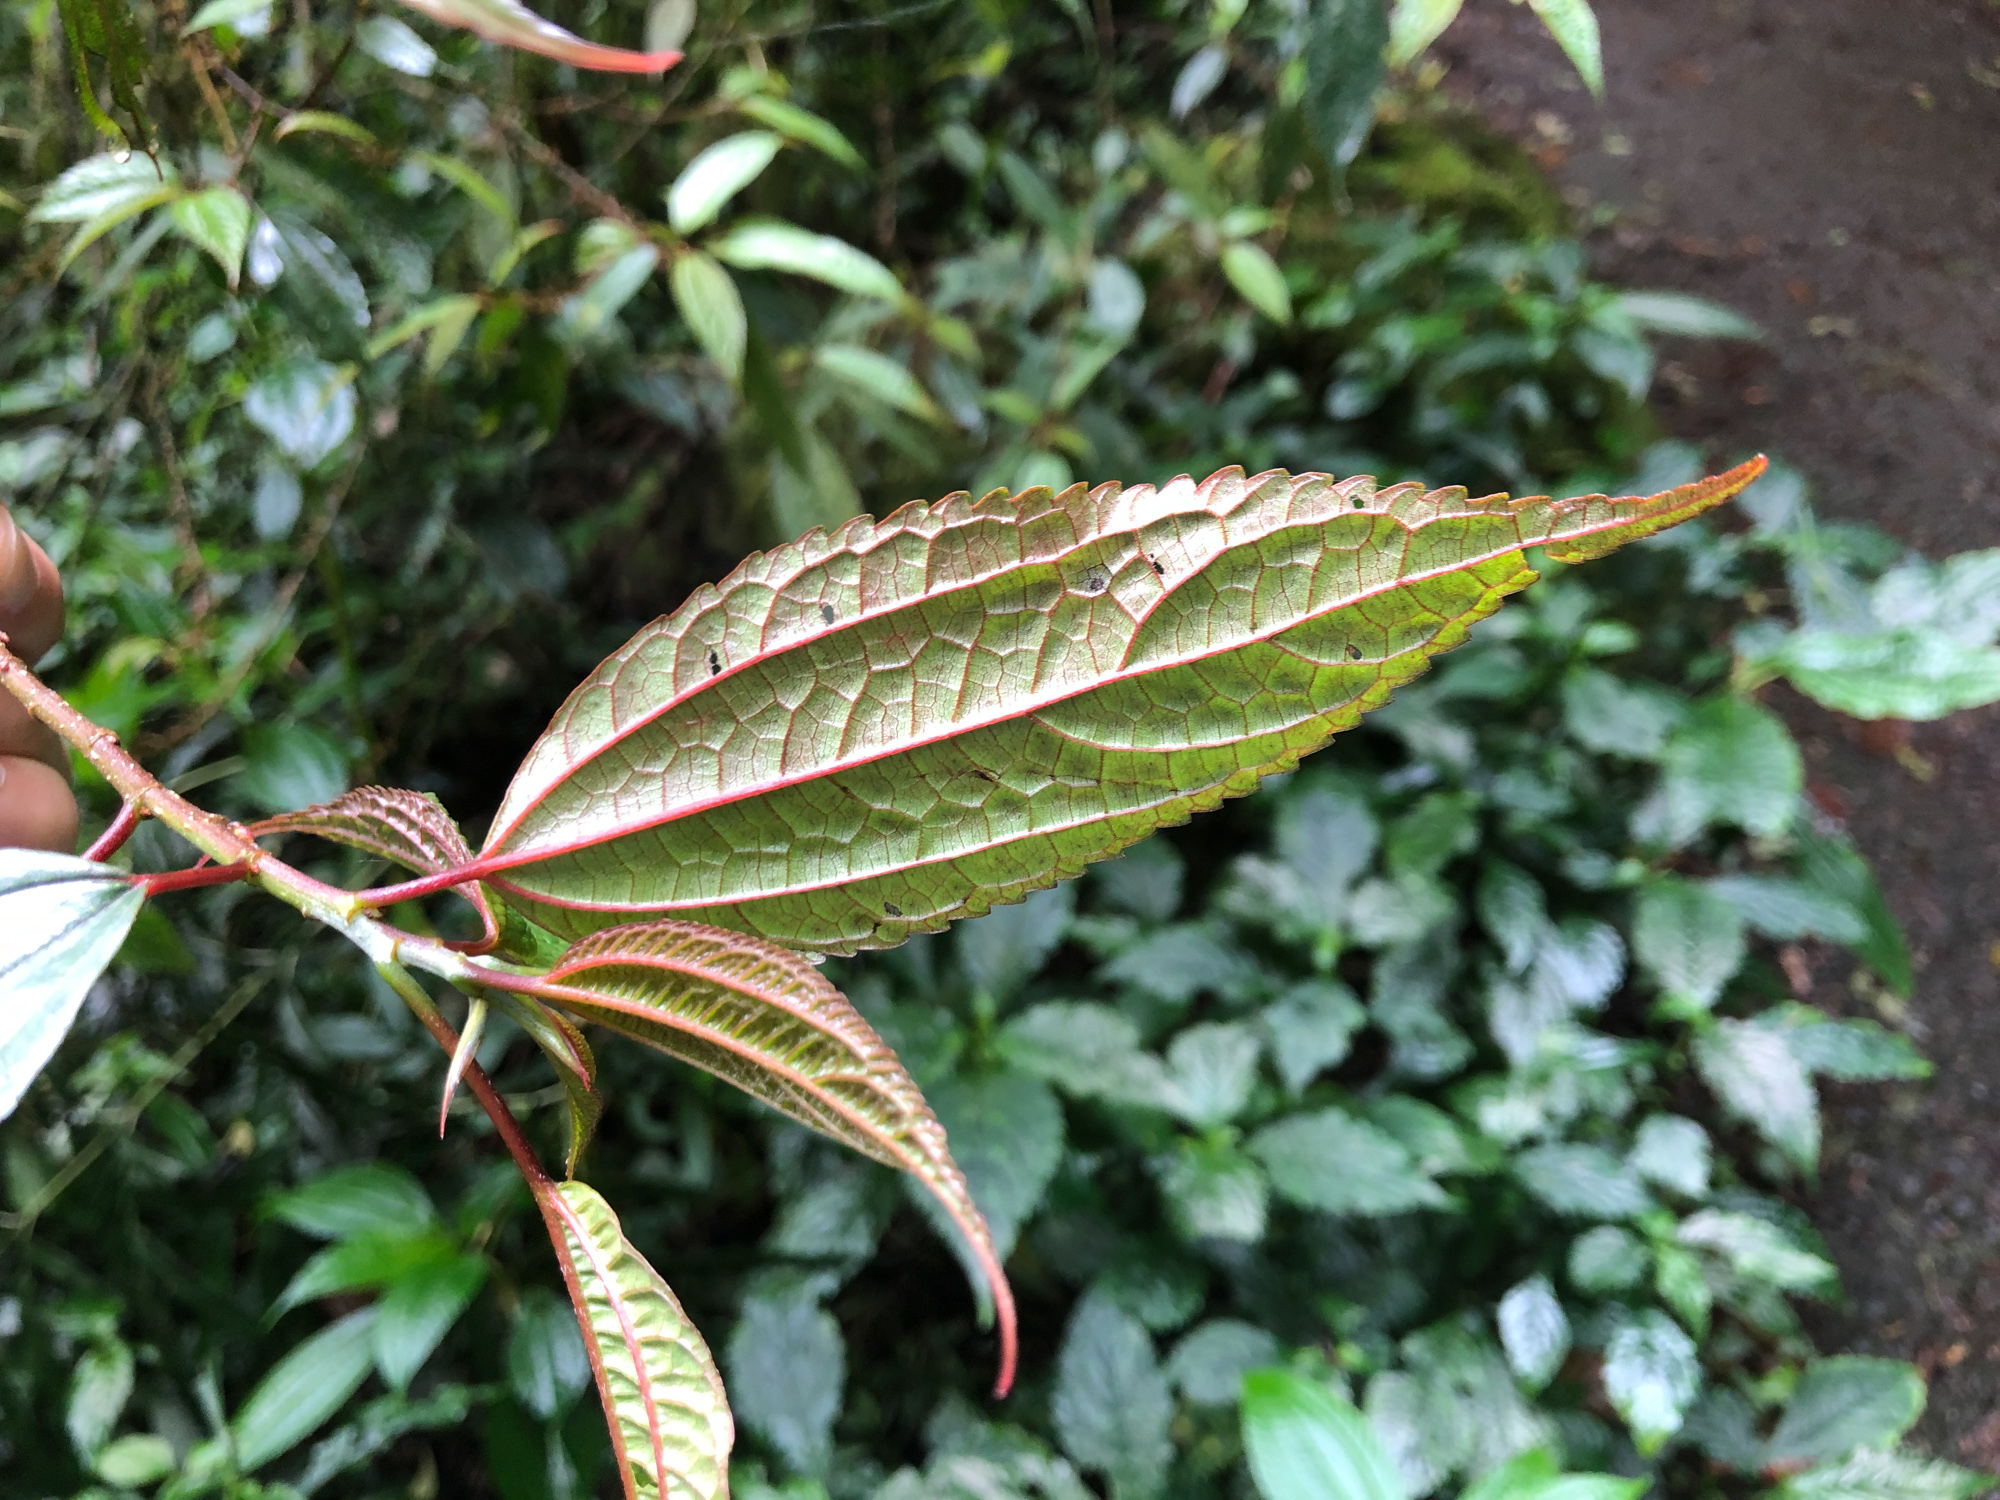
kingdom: Plantae
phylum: Tracheophyta
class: Magnoliopsida
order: Rosales
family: Urticaceae
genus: Oreocnide
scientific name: Oreocnide pedunculata
